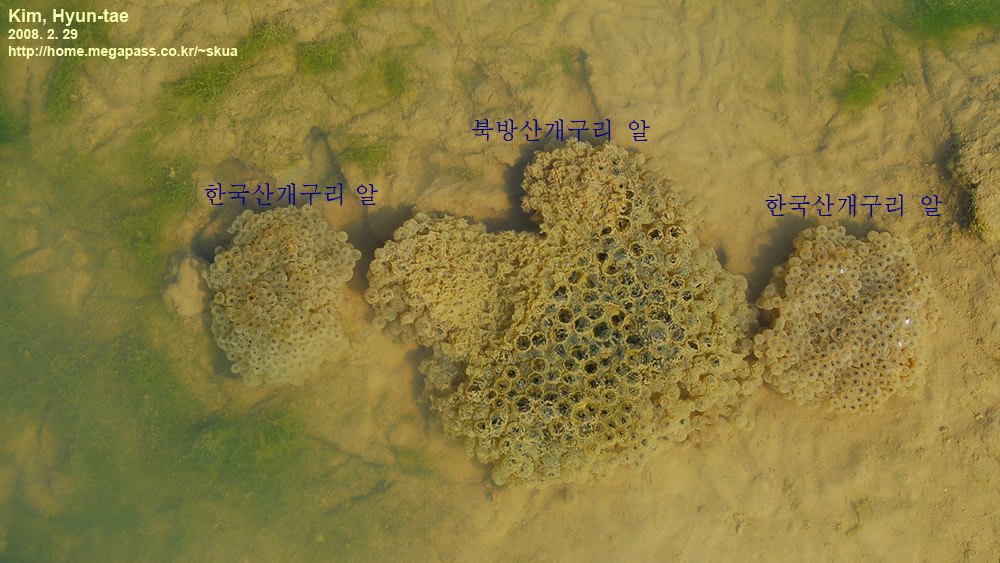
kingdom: Animalia
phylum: Chordata
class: Amphibia
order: Anura
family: Ranidae
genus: Rana
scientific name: Rana uenoi
